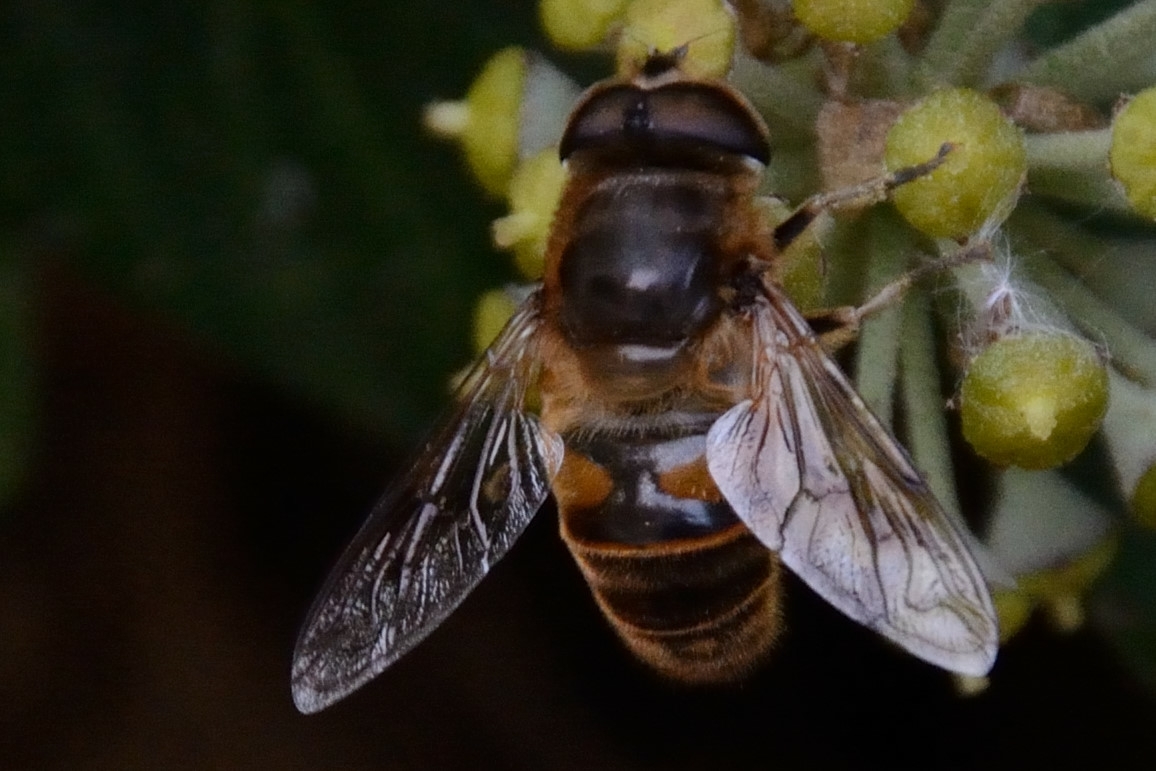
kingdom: Animalia
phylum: Arthropoda
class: Insecta
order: Diptera
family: Syrphidae
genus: Eristalis
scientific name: Eristalis tenax
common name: Drone fly
